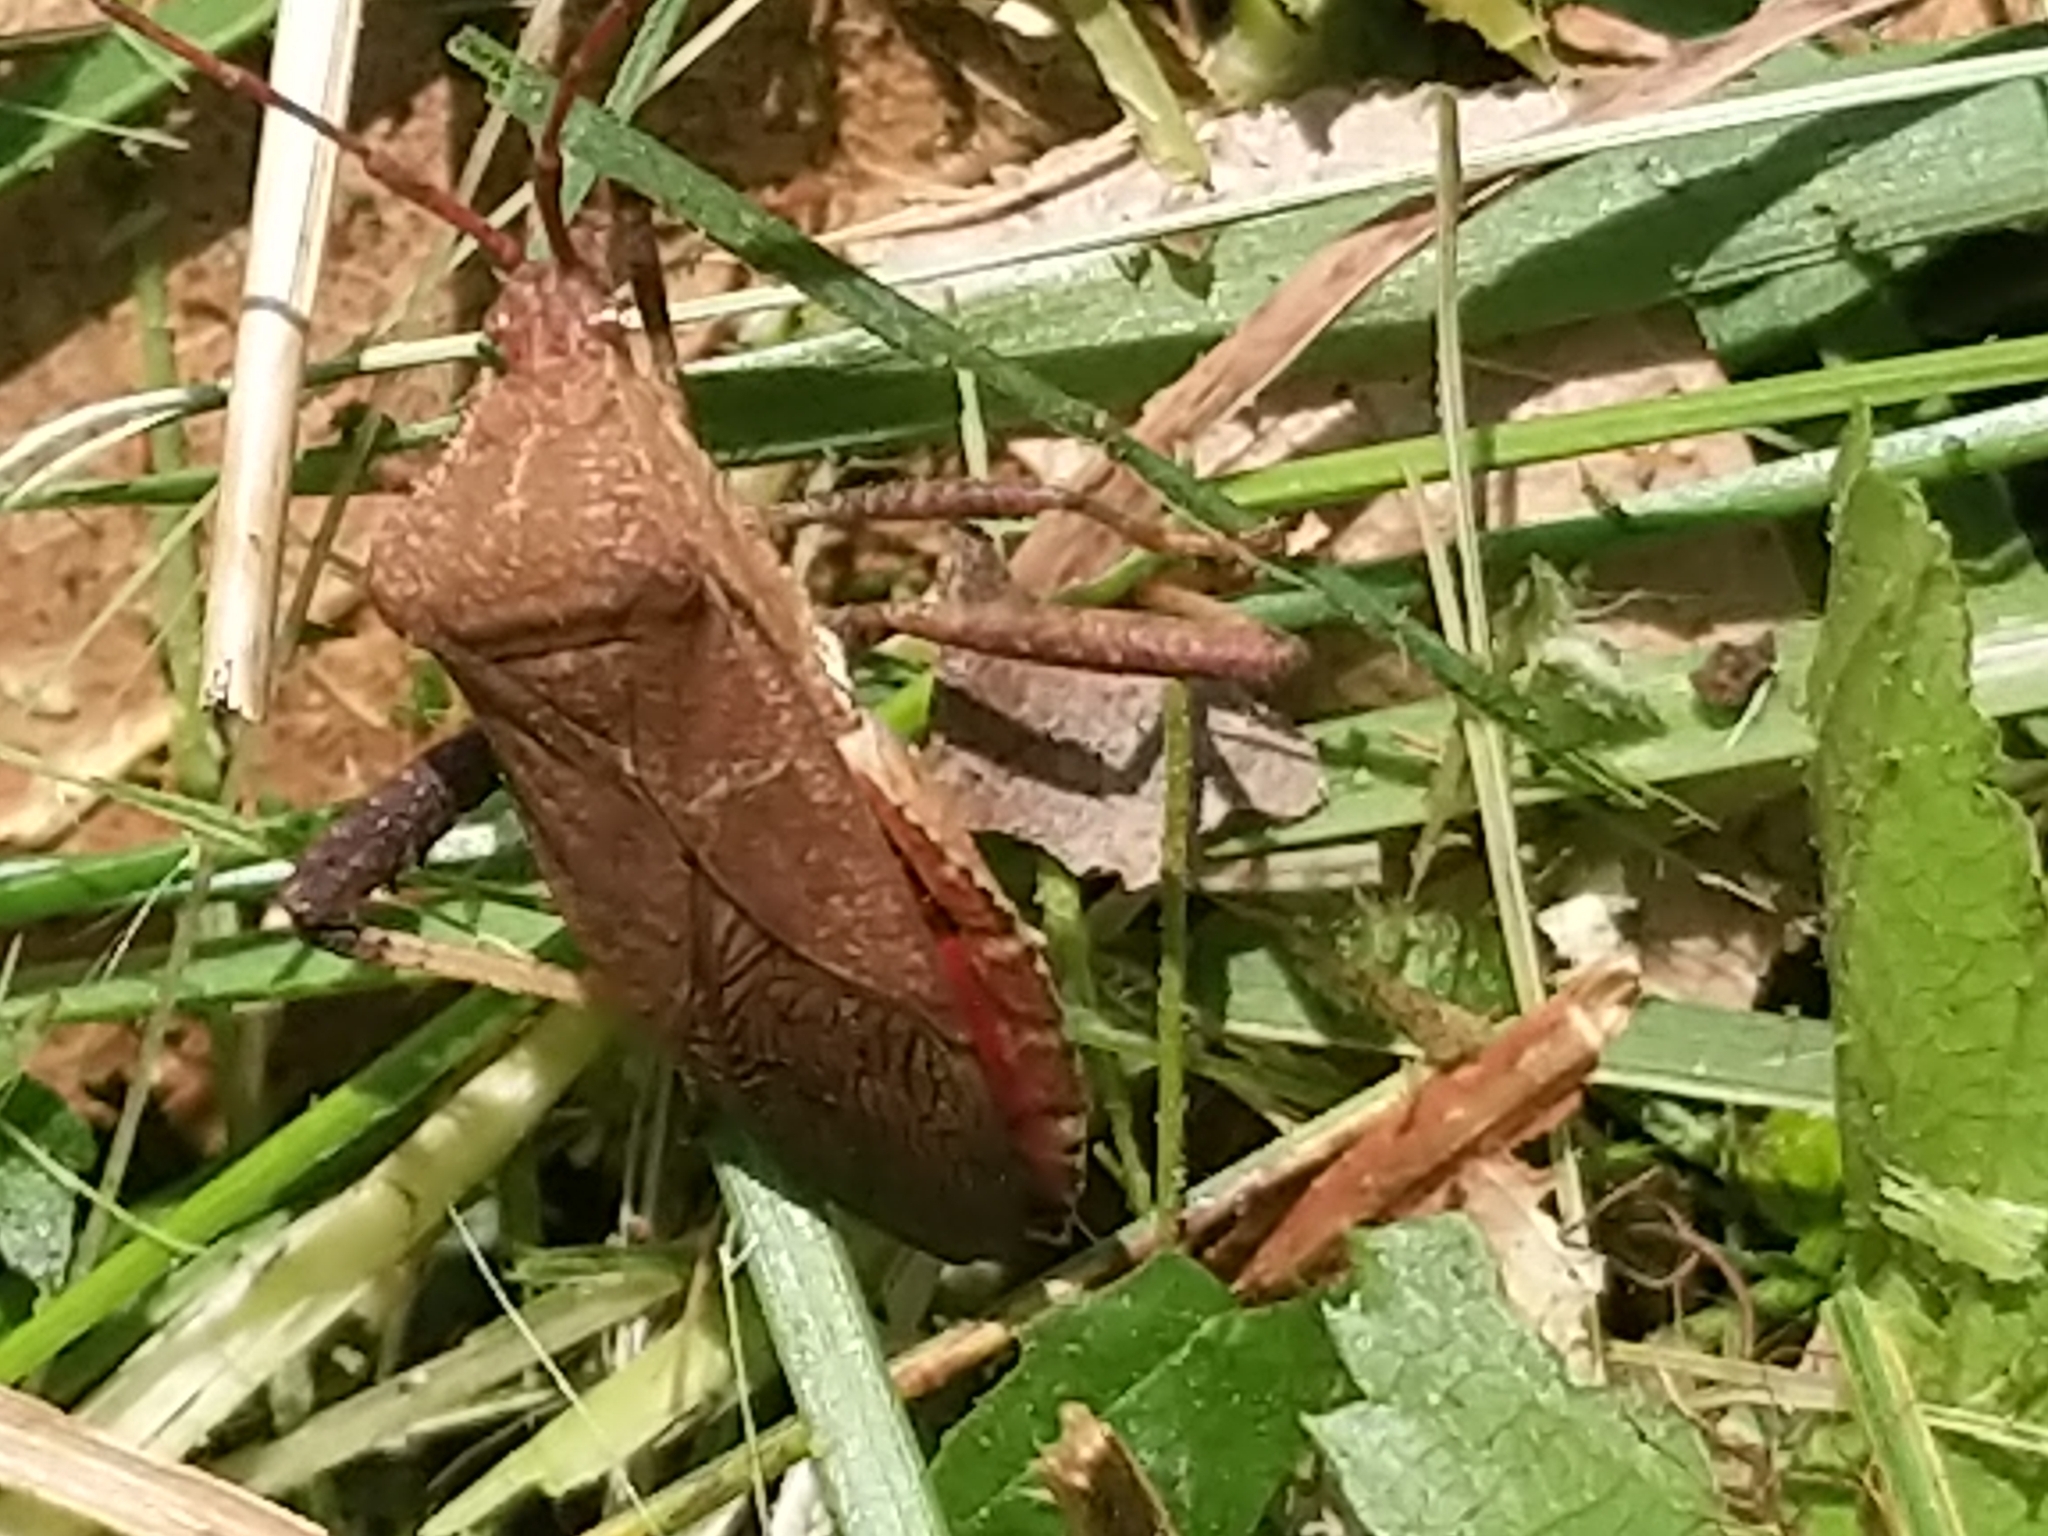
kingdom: Animalia
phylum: Arthropoda
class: Insecta
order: Hemiptera
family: Coreidae
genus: Euthochtha
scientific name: Euthochtha galeator
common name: Helmeted squash bug
